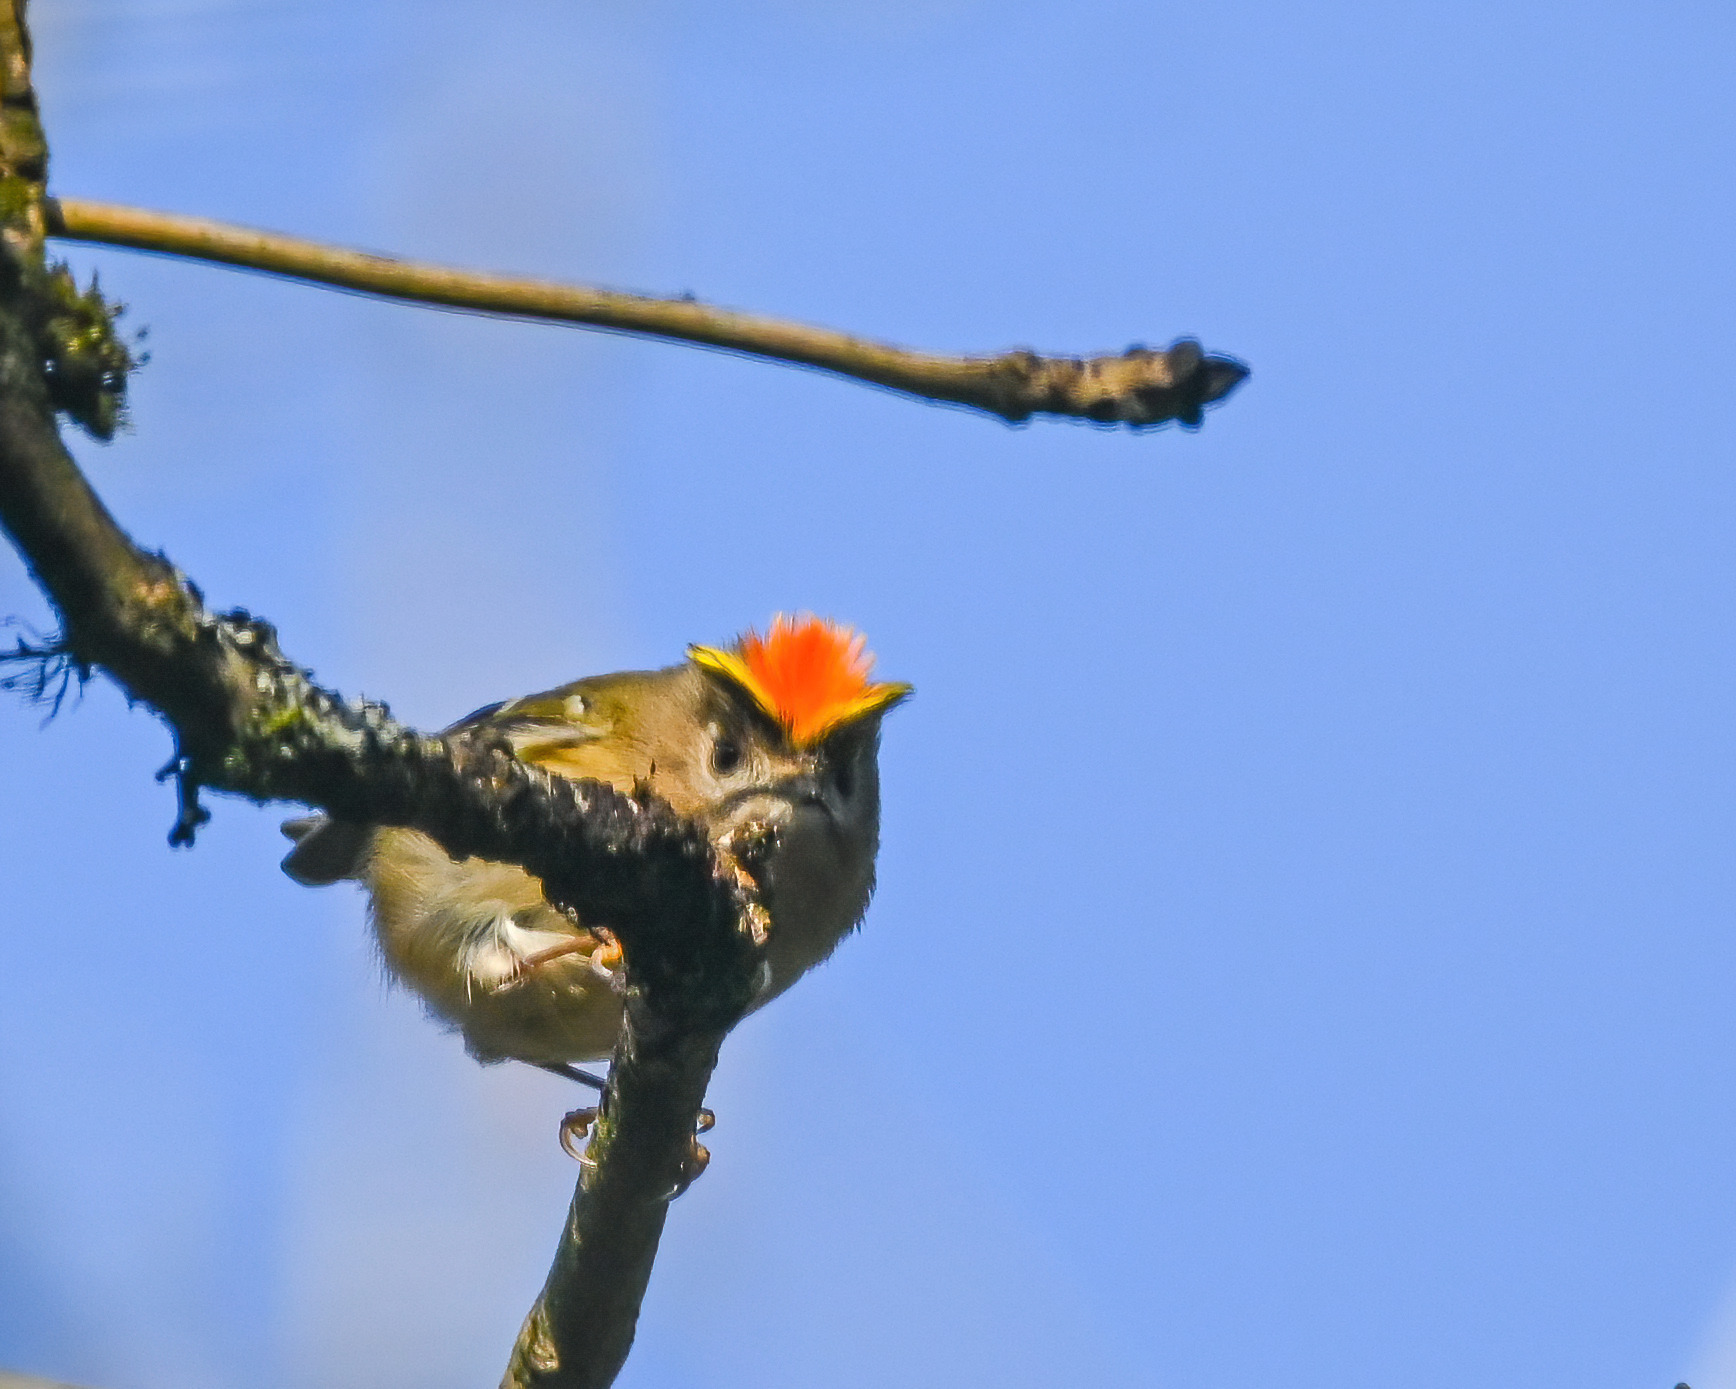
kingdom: Animalia
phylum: Chordata
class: Aves
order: Passeriformes
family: Regulidae
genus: Regulus
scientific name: Regulus regulus
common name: Goldcrest
